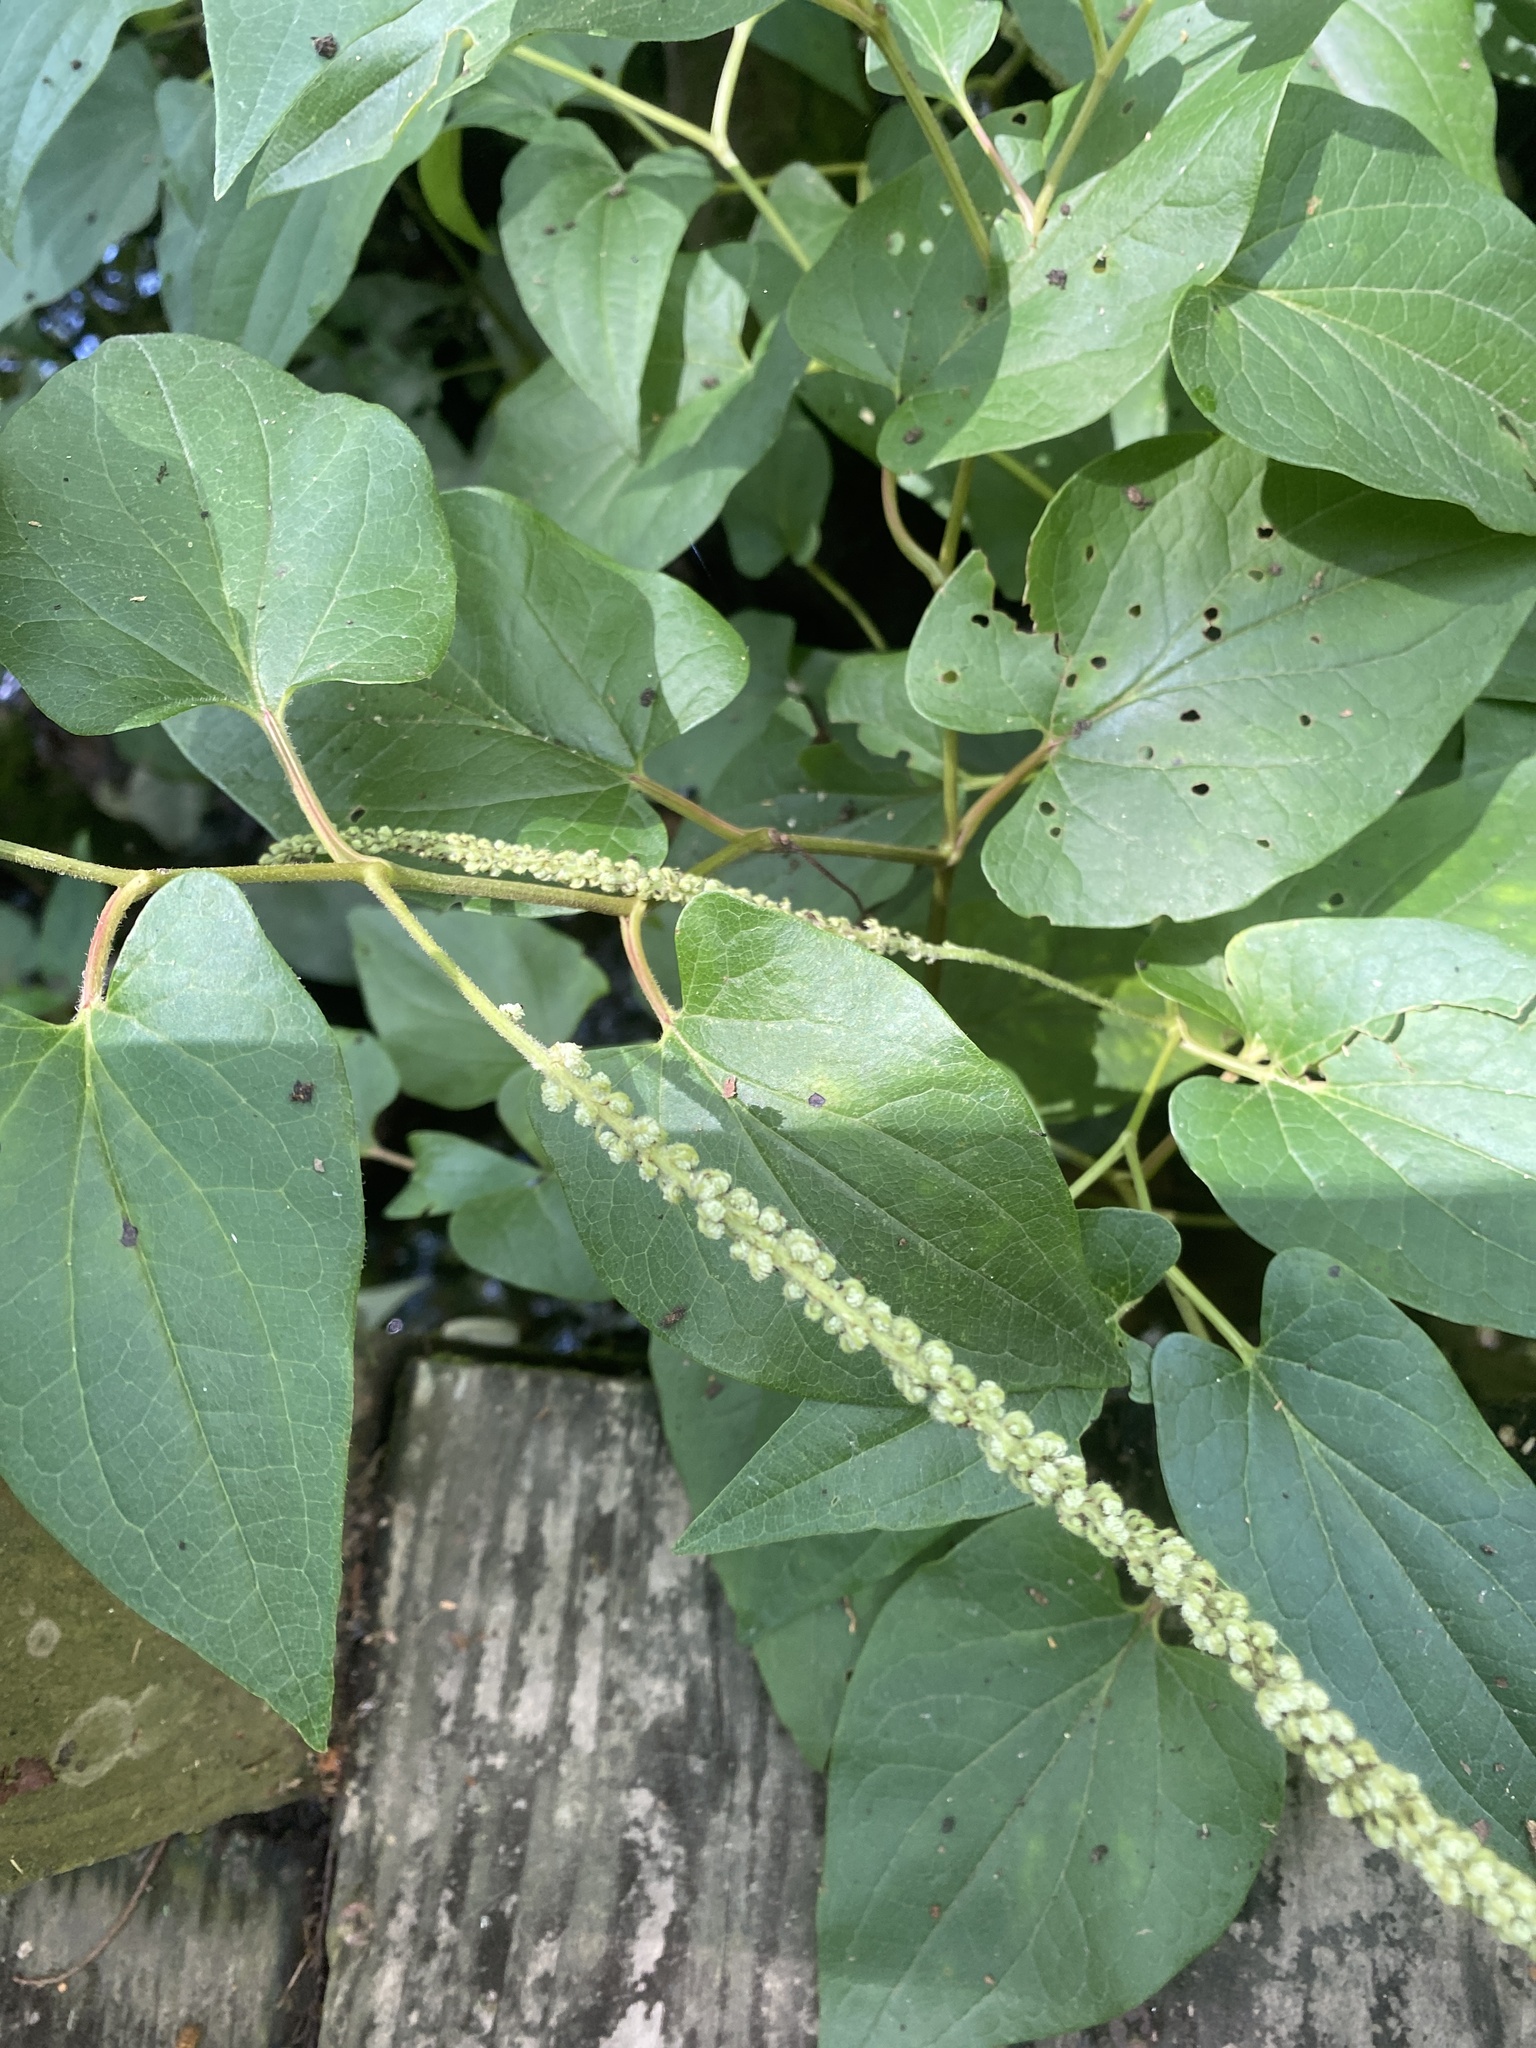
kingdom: Plantae
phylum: Tracheophyta
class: Magnoliopsida
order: Piperales
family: Saururaceae
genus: Saururus
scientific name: Saururus cernuus
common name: Lizard's-tail
